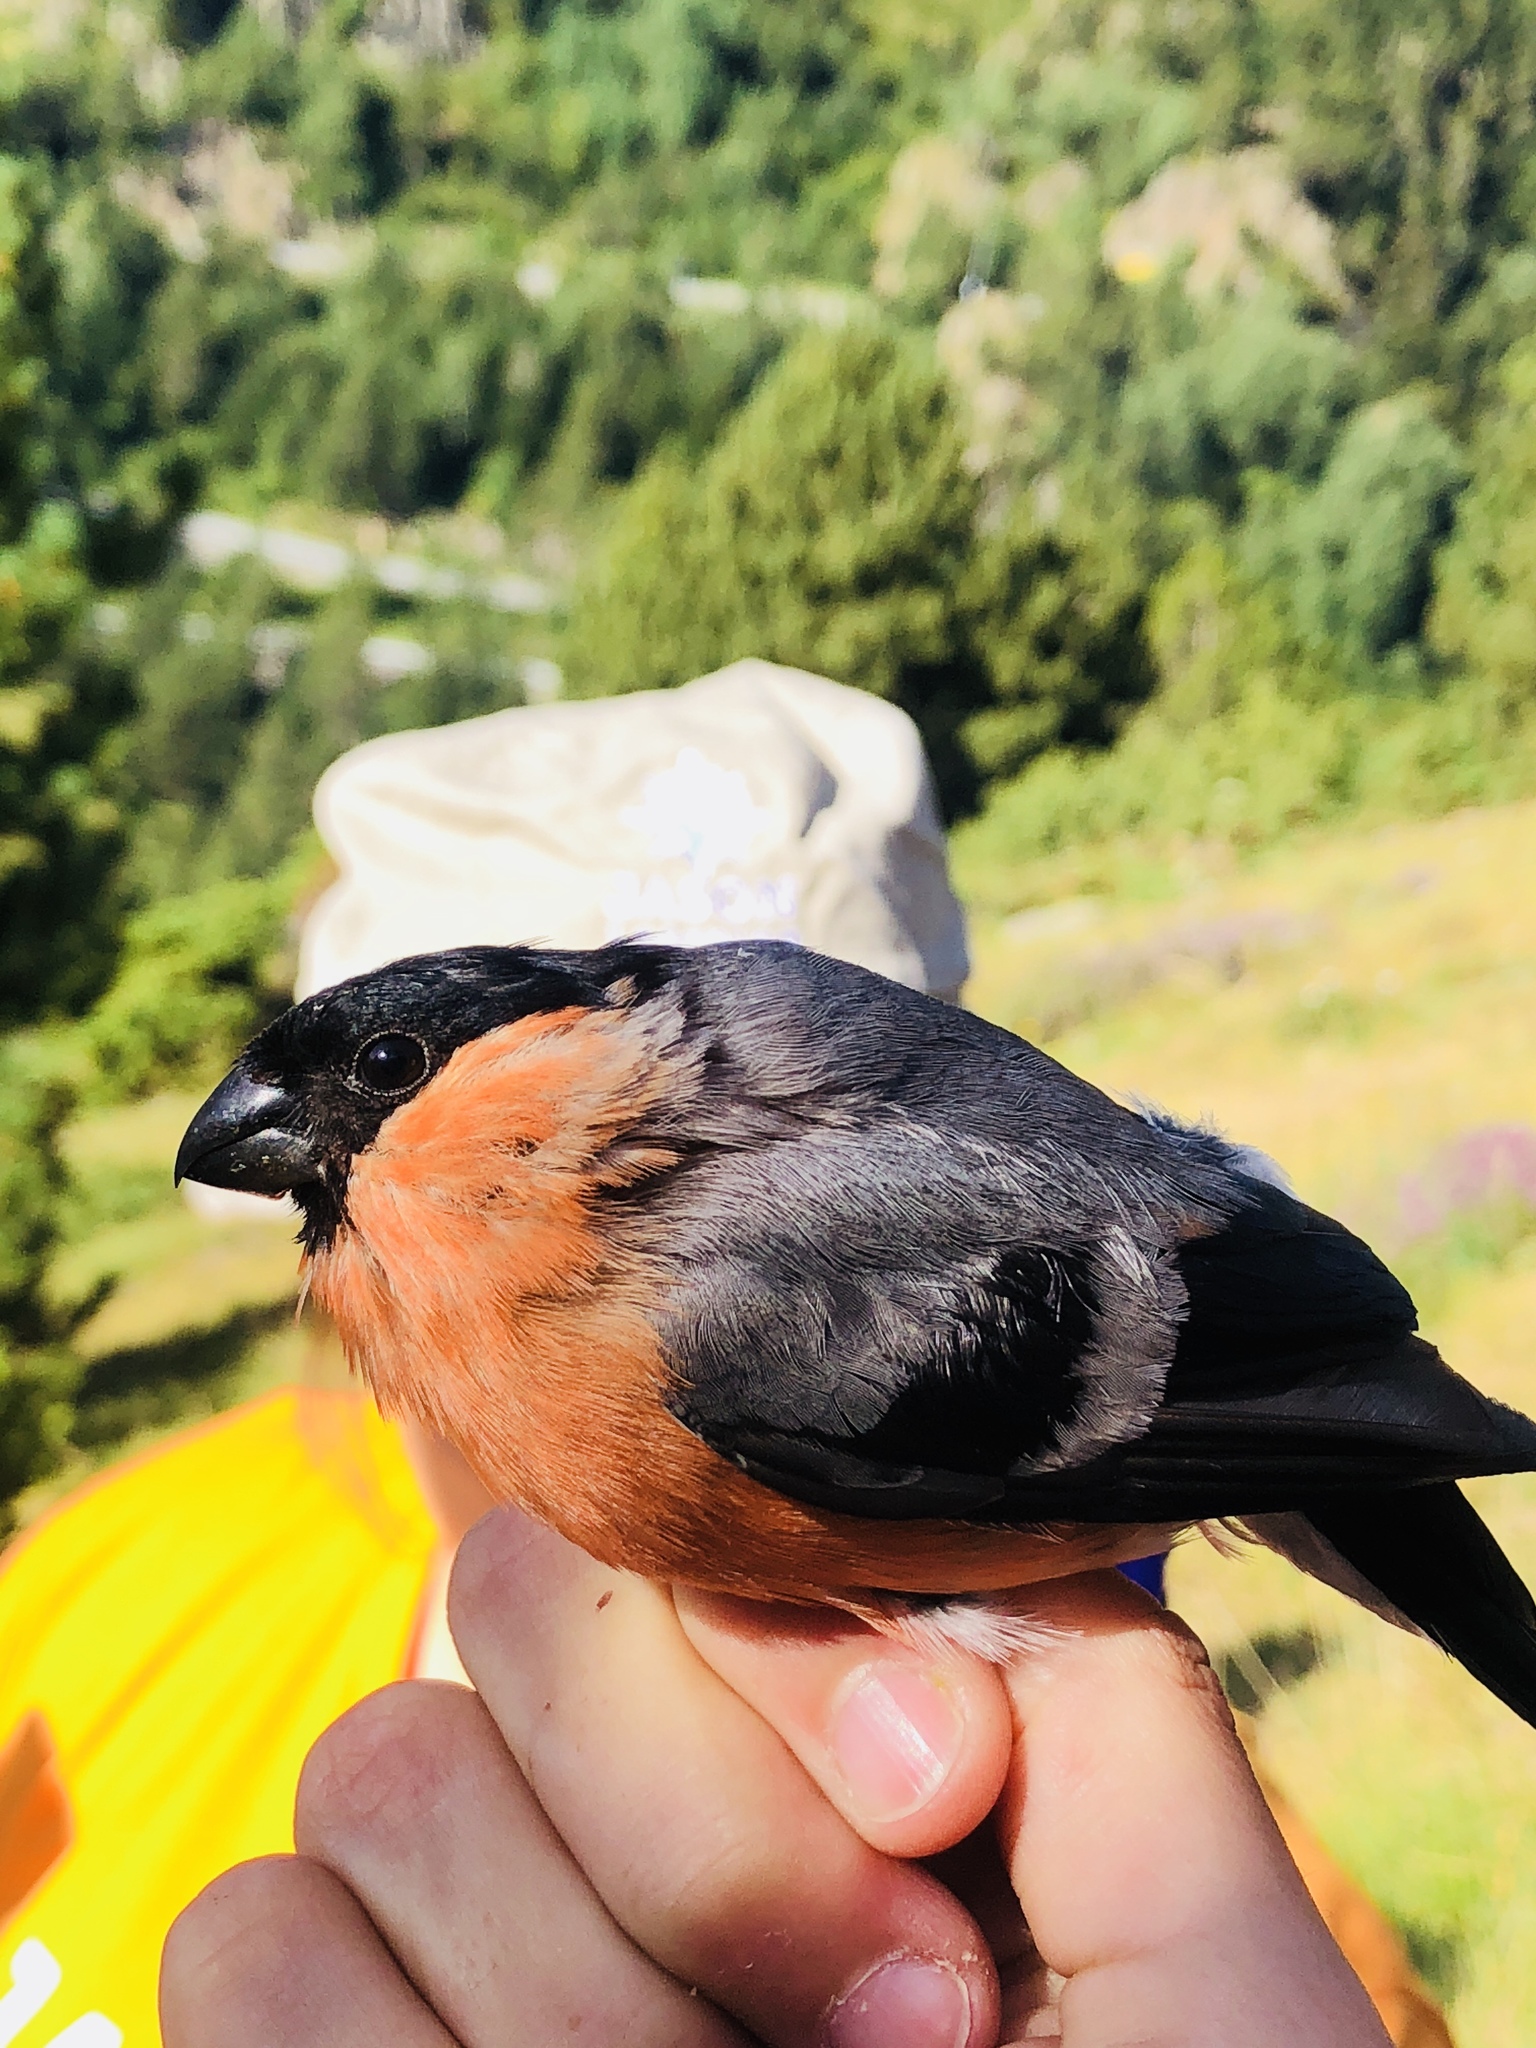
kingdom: Animalia
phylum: Chordata
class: Aves
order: Passeriformes
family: Fringillidae
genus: Pyrrhula
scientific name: Pyrrhula pyrrhula
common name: Eurasian bullfinch
